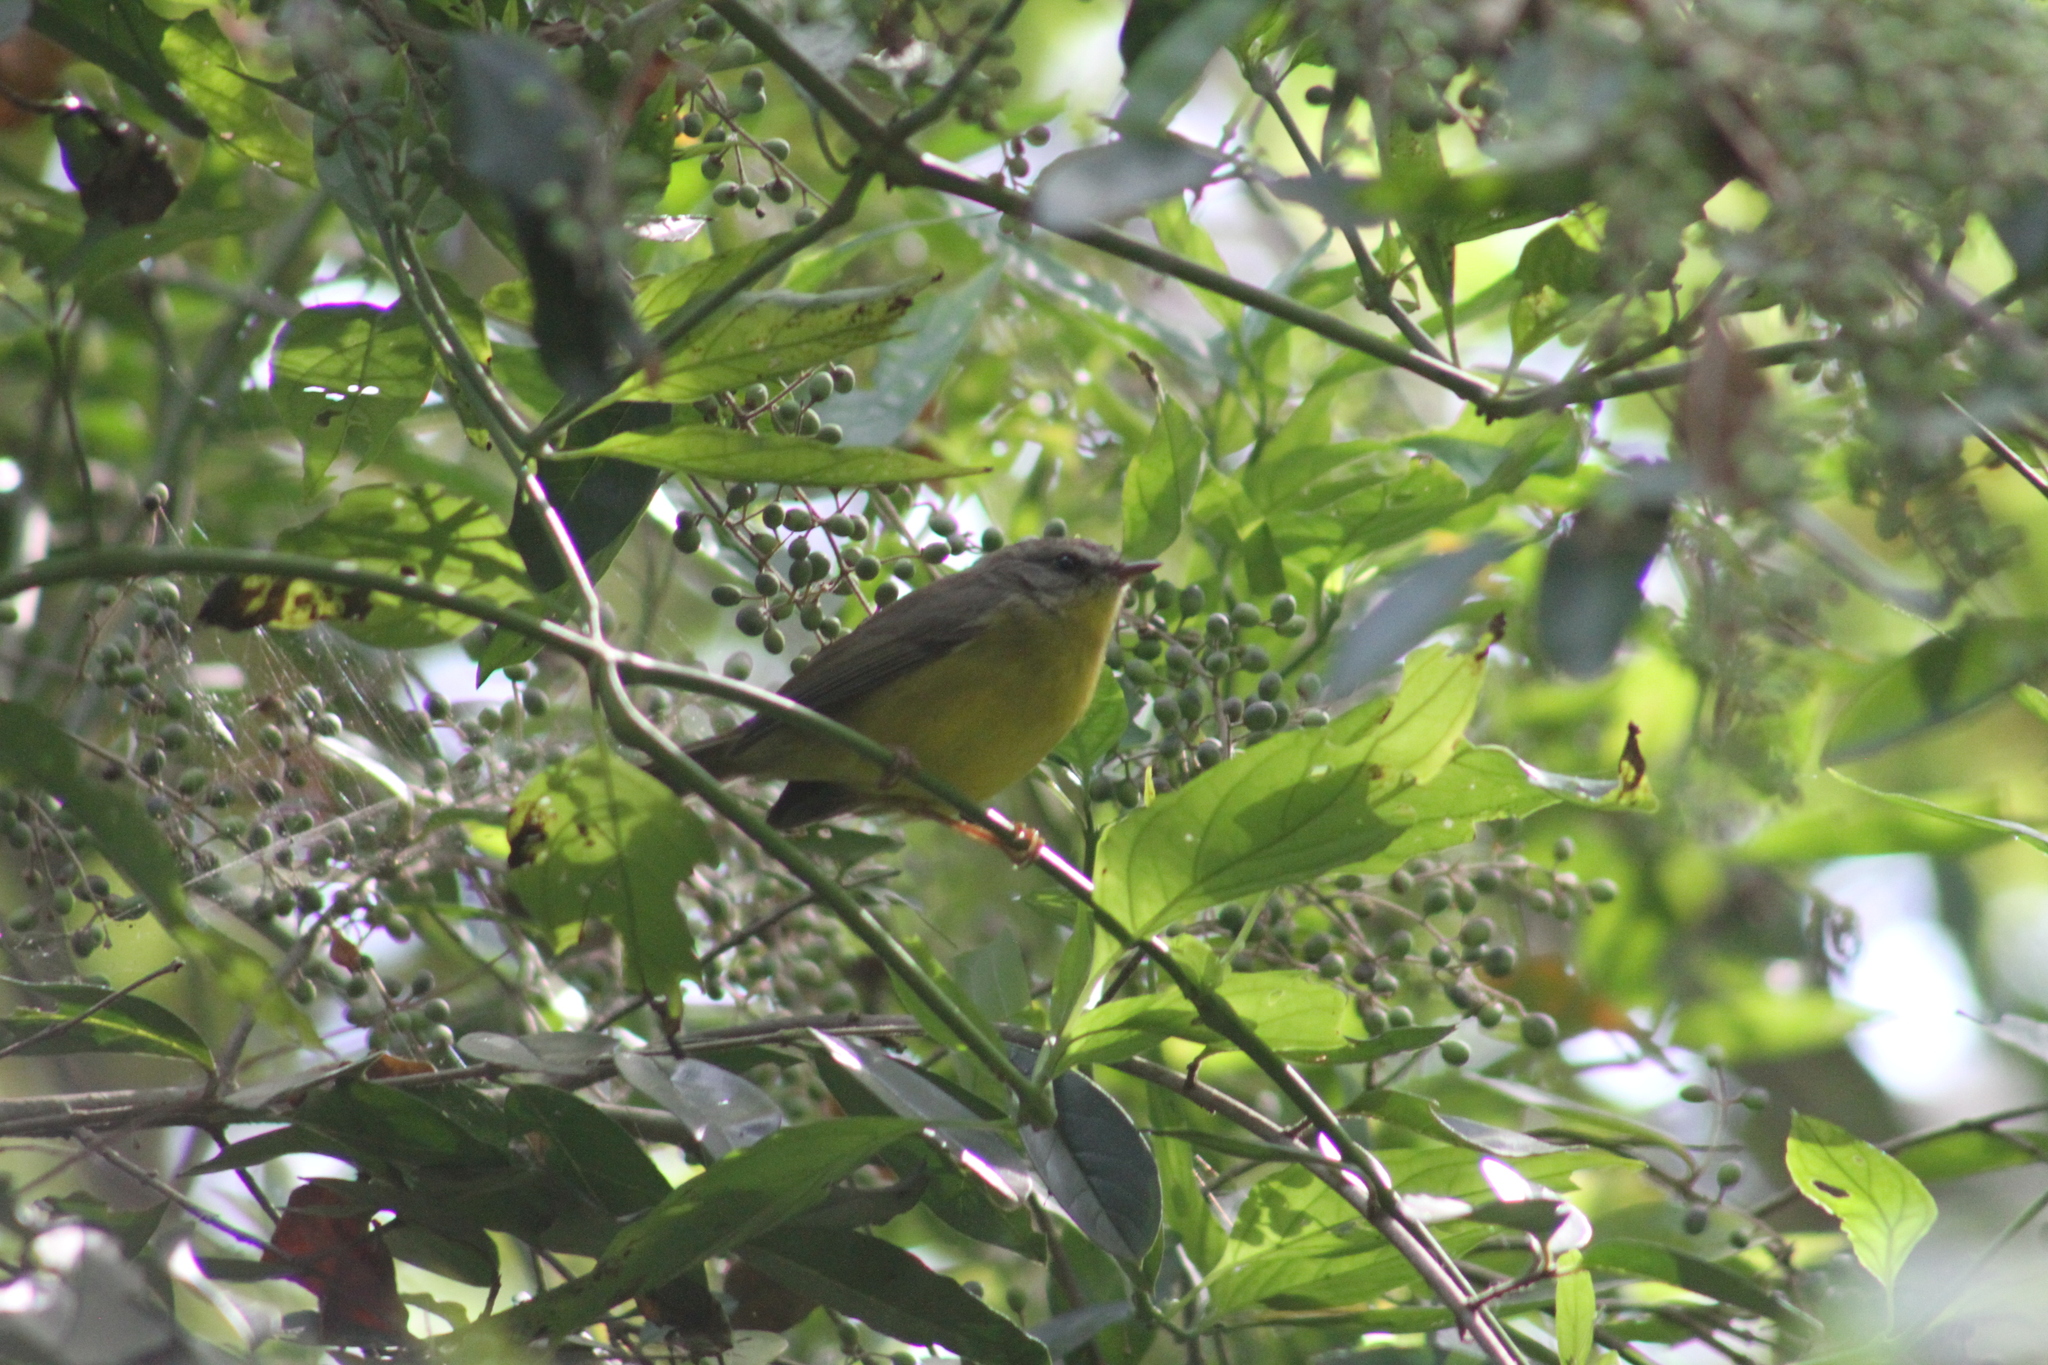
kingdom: Animalia
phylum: Chordata
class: Aves
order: Passeriformes
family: Parulidae
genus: Basileuterus
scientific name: Basileuterus culicivorus
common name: Golden-crowned warbler
